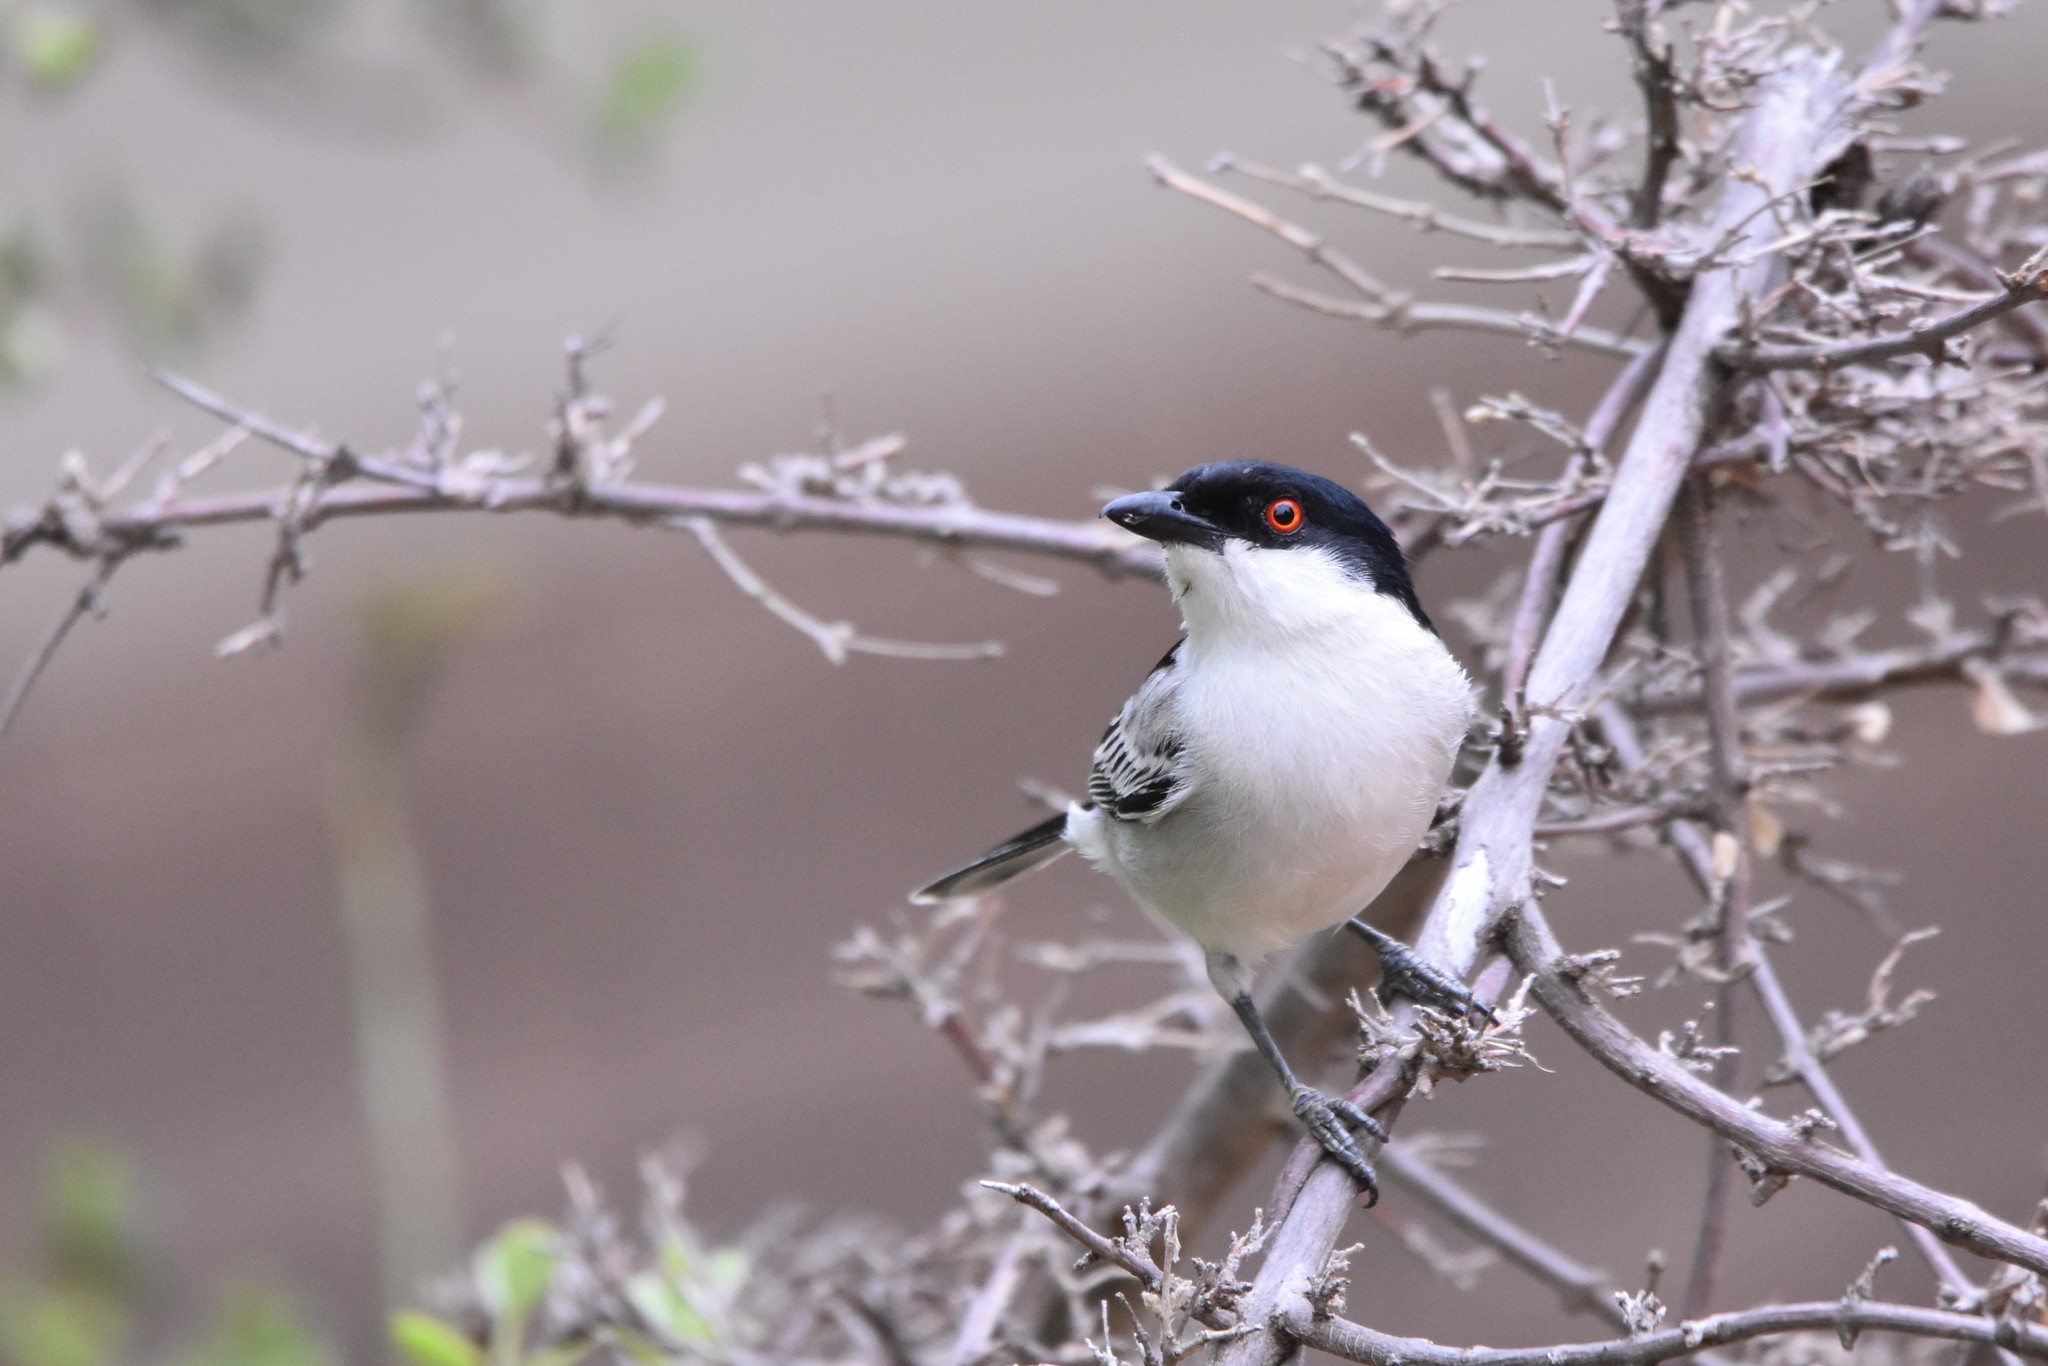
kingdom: Animalia
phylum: Chordata
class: Aves
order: Passeriformes
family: Malaconotidae
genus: Dryoscopus
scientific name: Dryoscopus cubla
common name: Black-backed puffback
